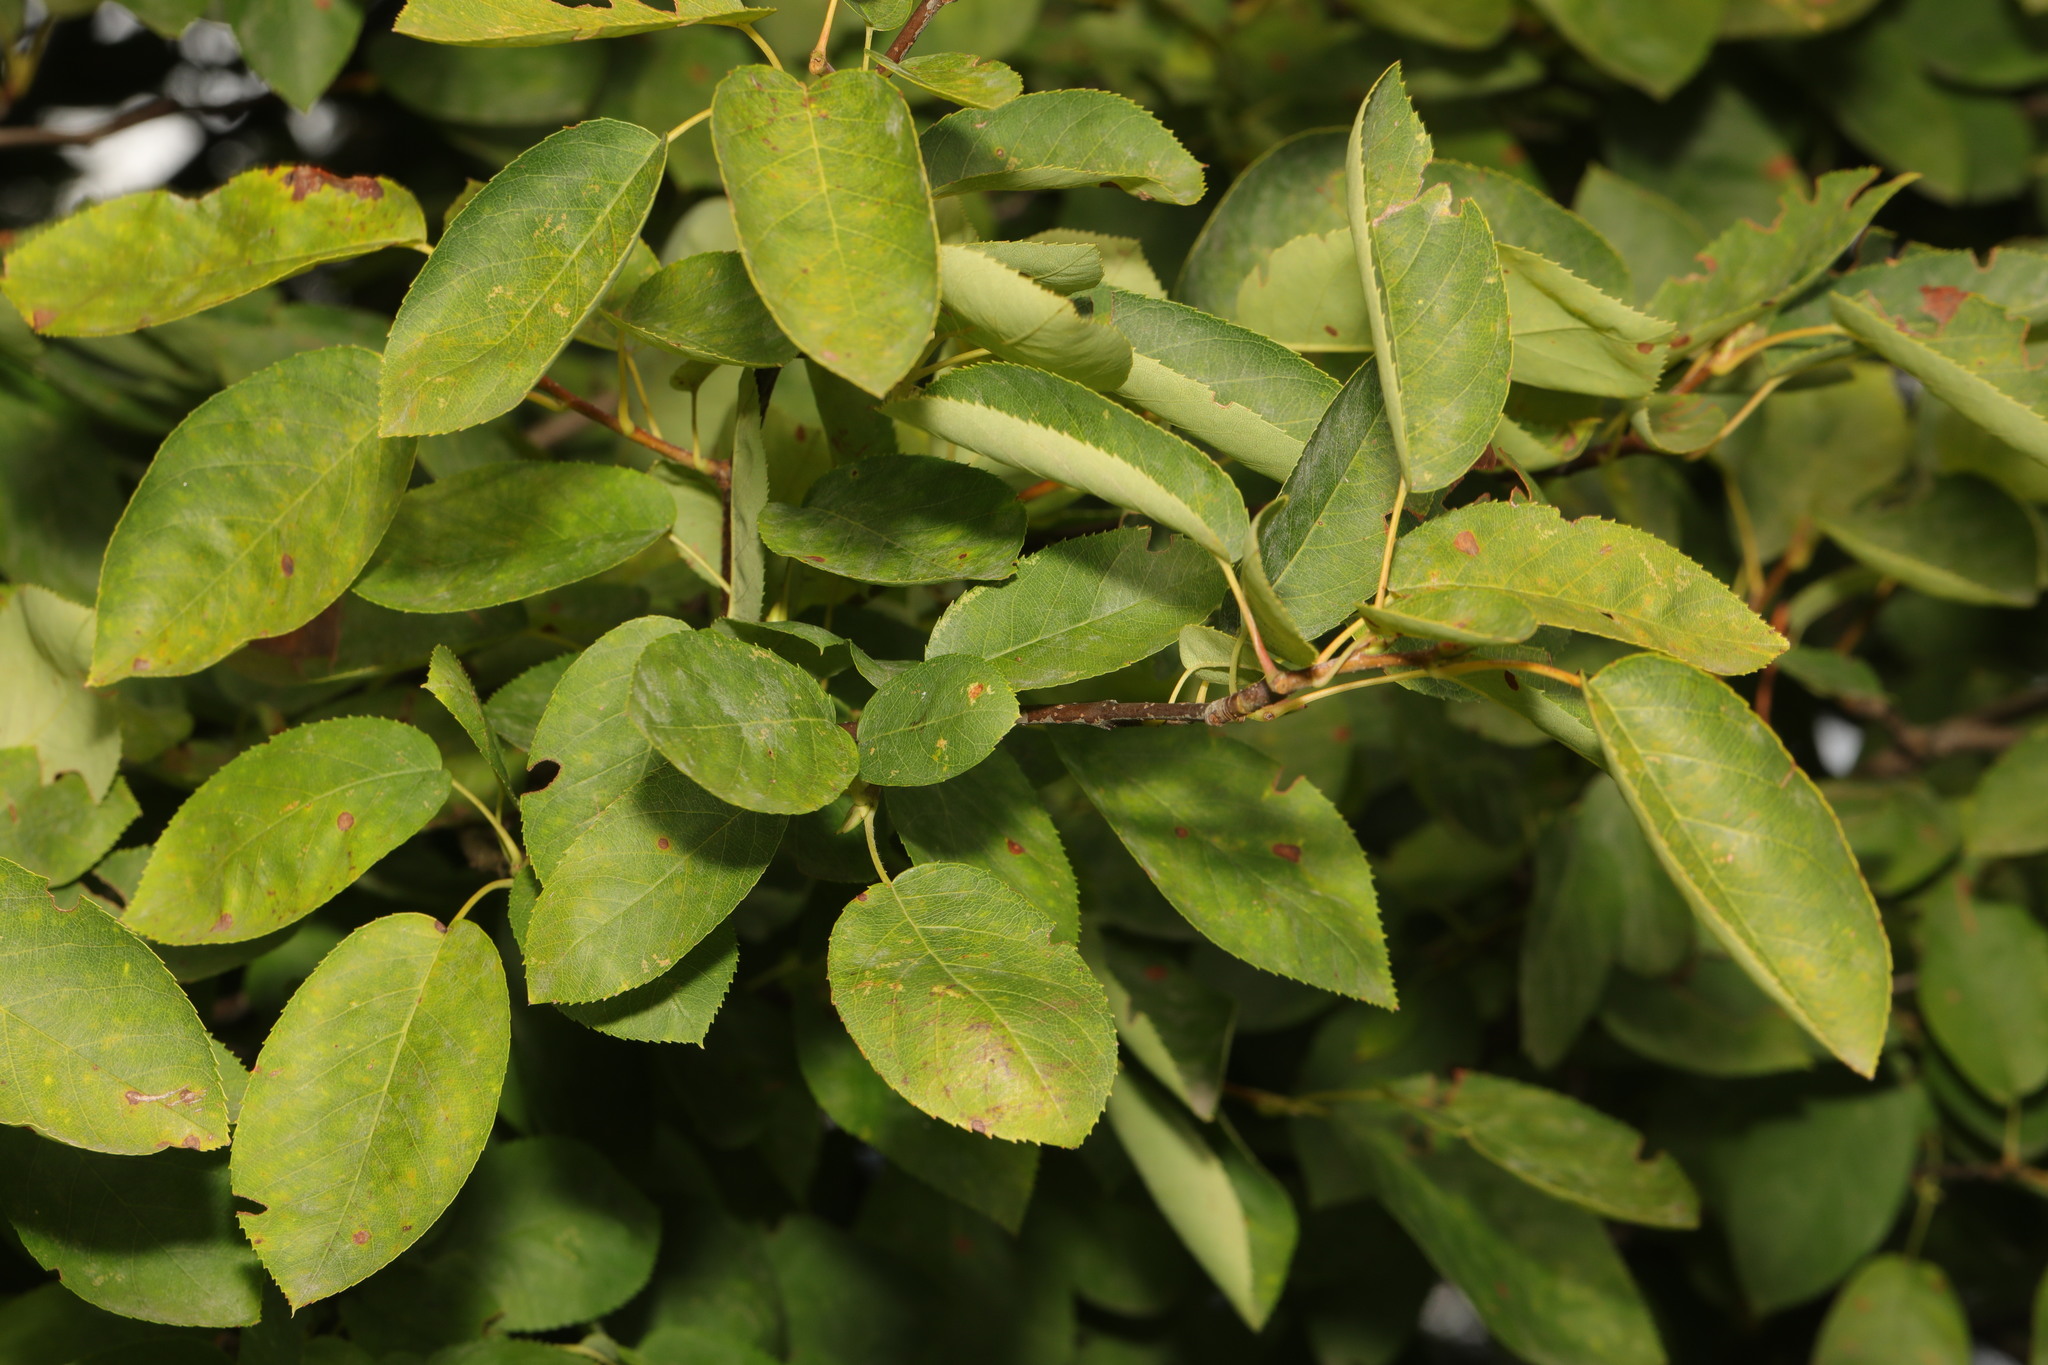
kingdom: Plantae
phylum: Tracheophyta
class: Magnoliopsida
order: Rosales
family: Rosaceae
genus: Amelanchier
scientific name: Amelanchier lamarckii
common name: Juneberry
